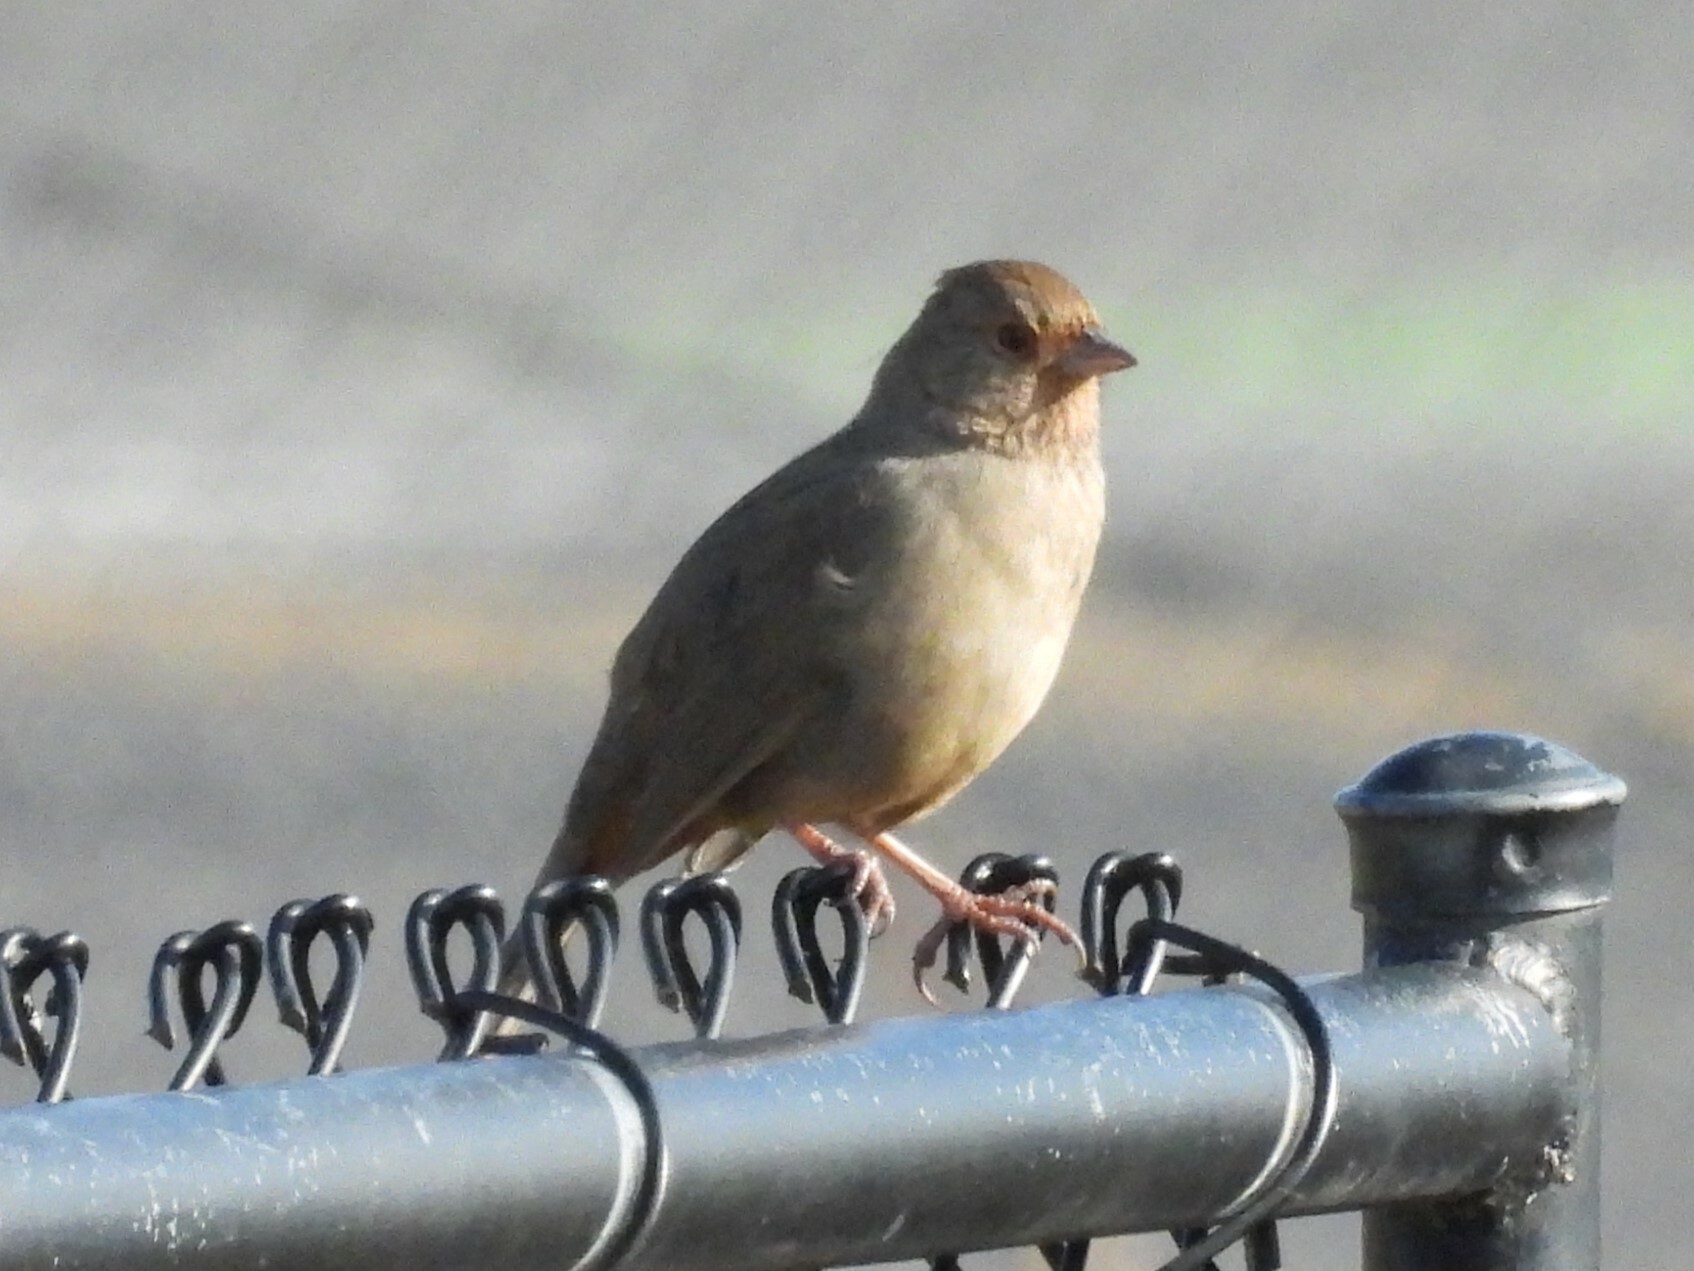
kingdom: Animalia
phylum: Chordata
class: Aves
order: Passeriformes
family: Passerellidae
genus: Melozone
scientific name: Melozone crissalis
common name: California towhee
